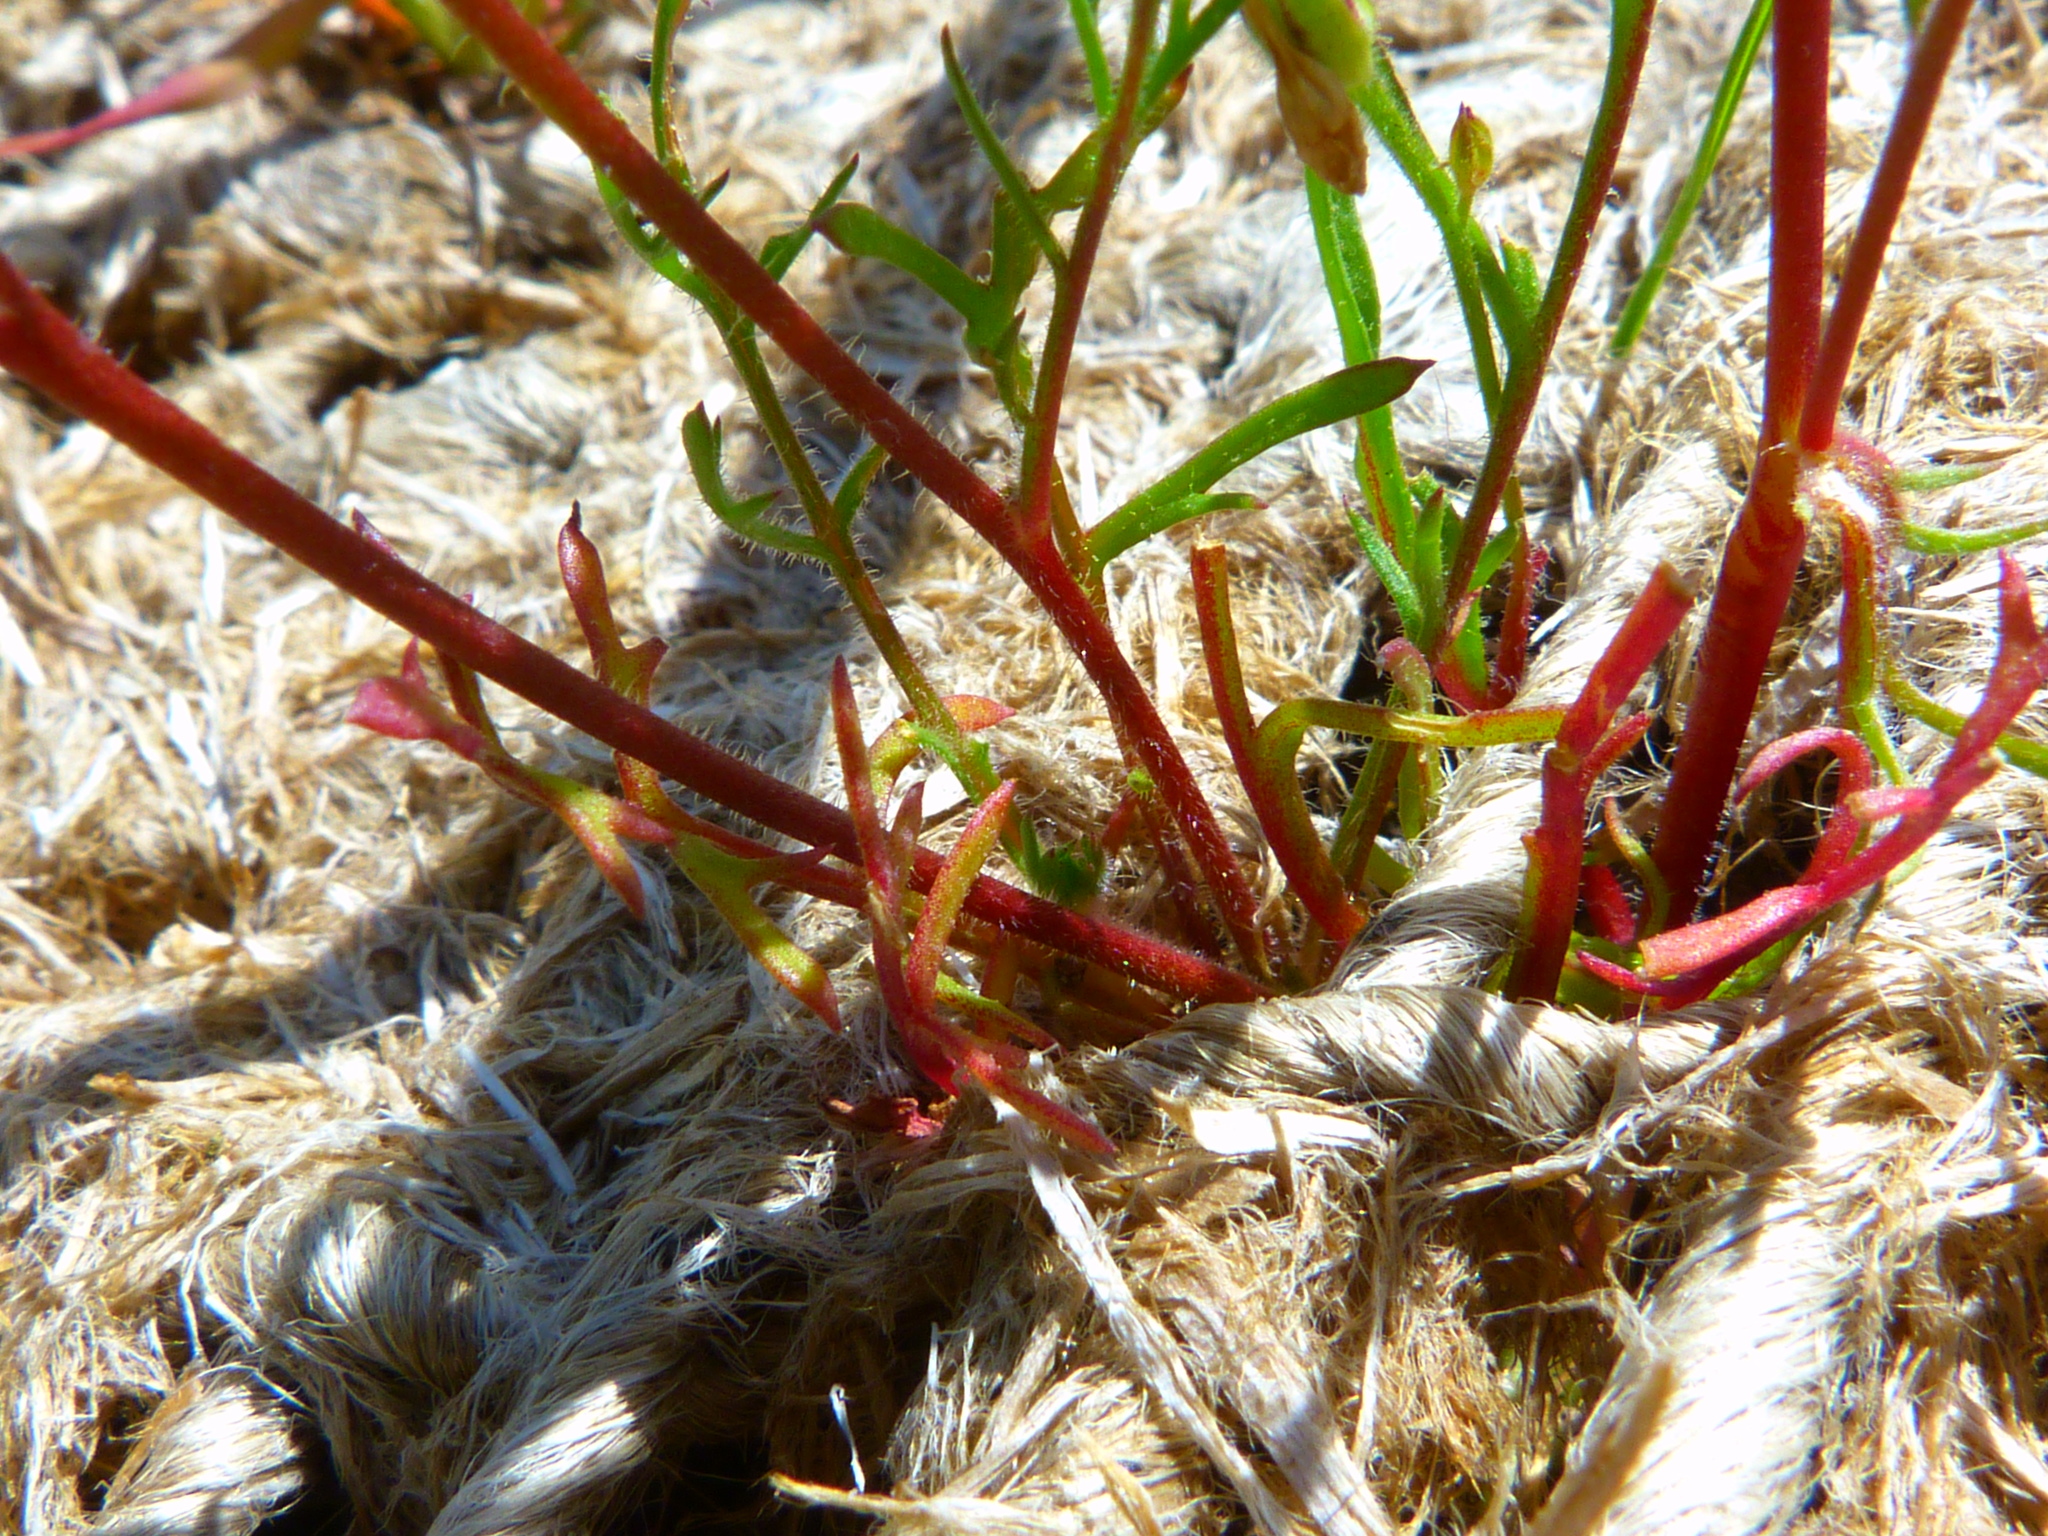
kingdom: Plantae
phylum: Tracheophyta
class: Magnoliopsida
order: Ericales
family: Polemoniaceae
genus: Gilia
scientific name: Gilia angelensis
